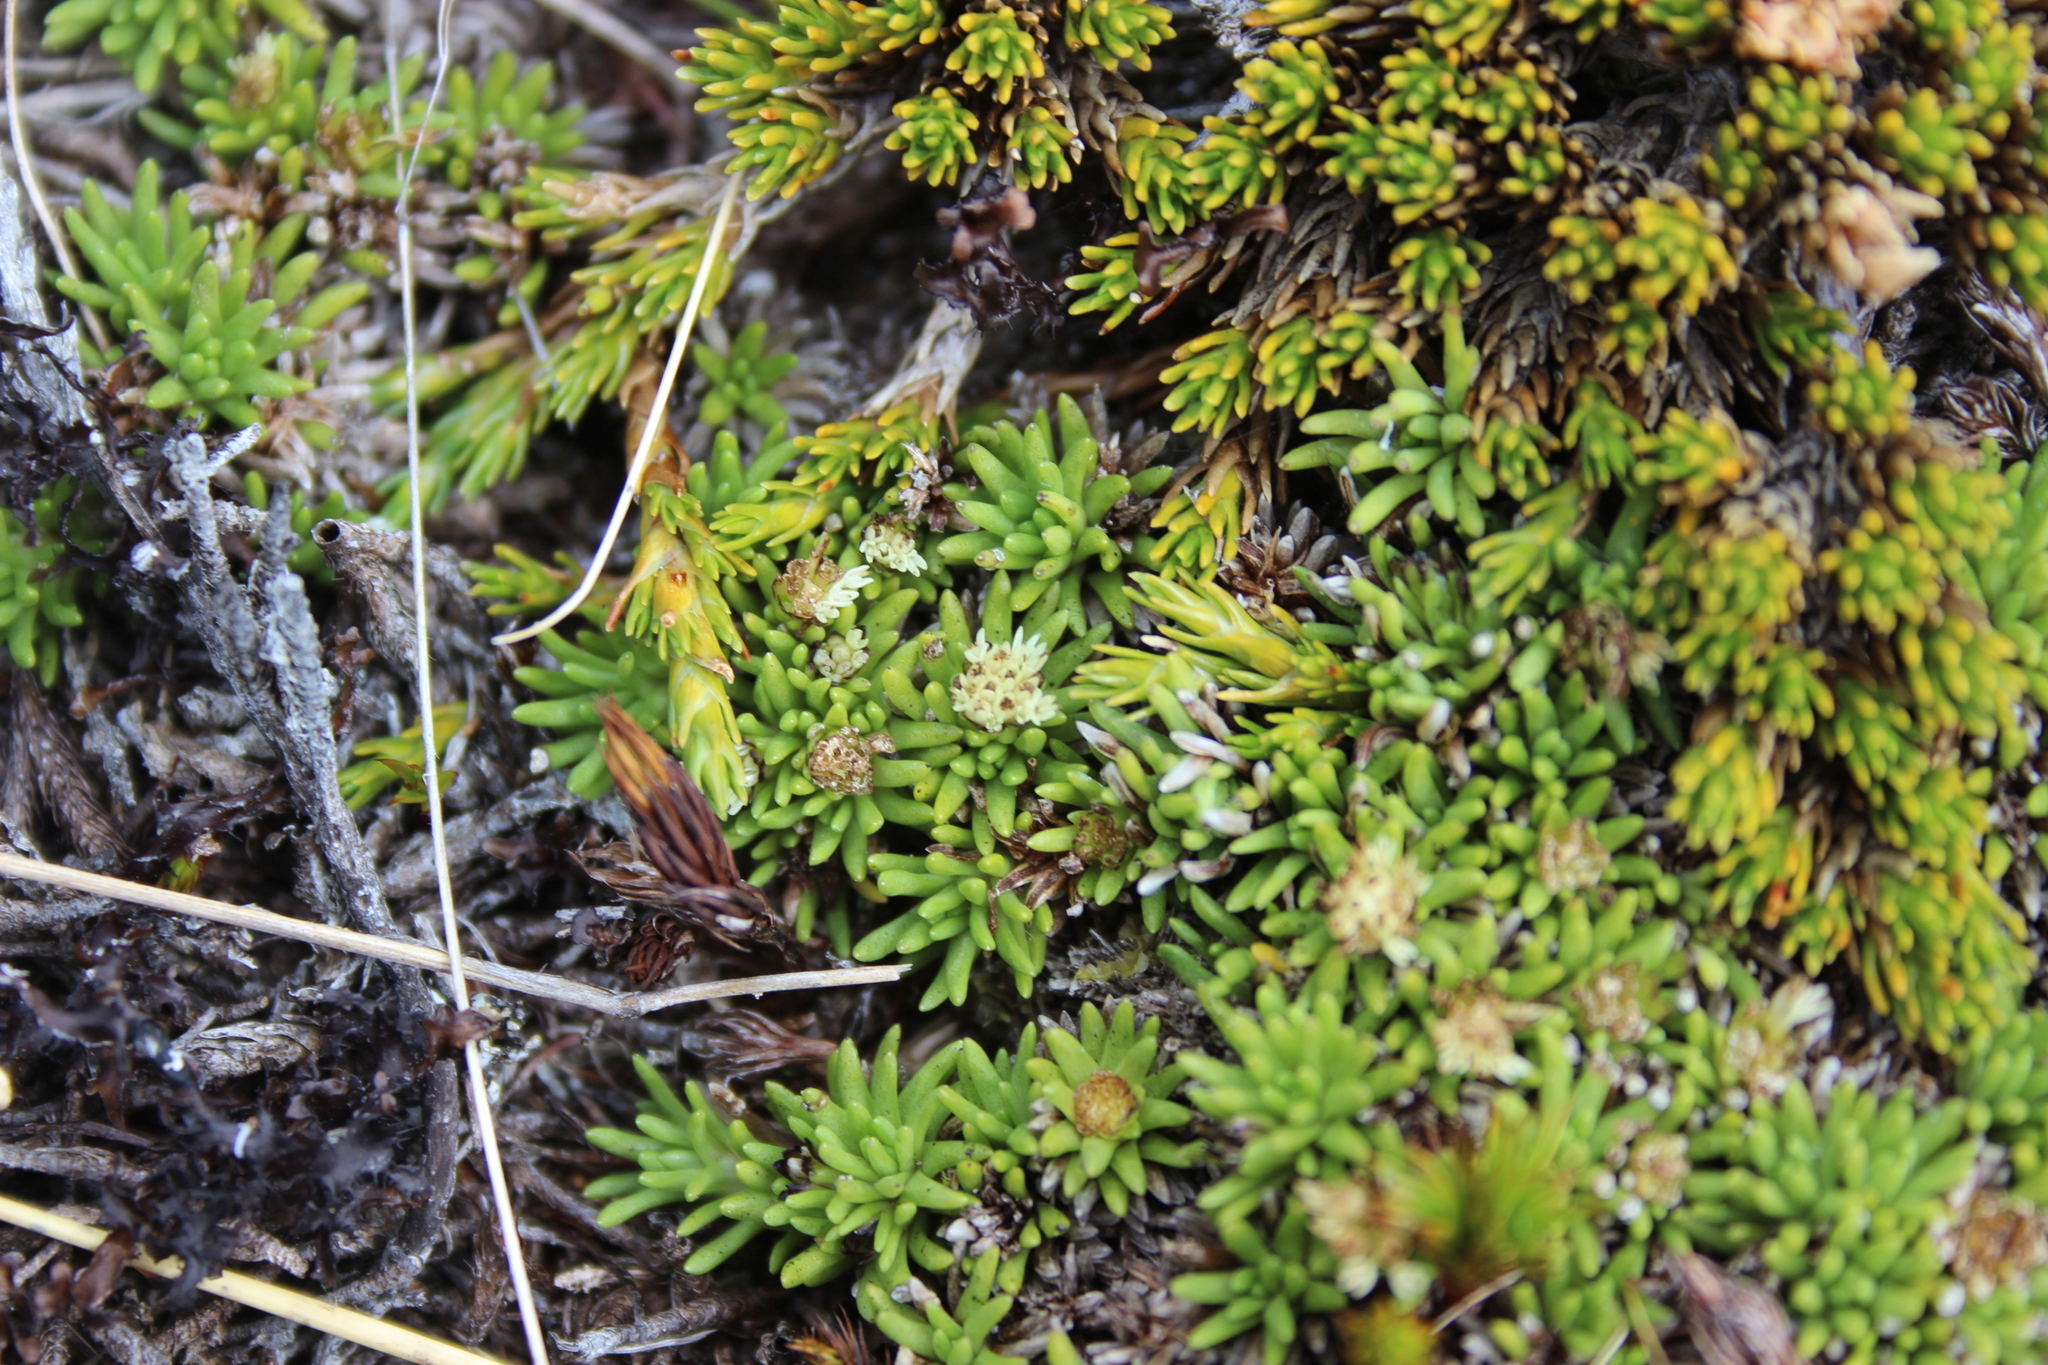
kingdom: Plantae
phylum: Tracheophyta
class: Magnoliopsida
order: Asterales
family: Asteraceae
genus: Abrotanella
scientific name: Abrotanella inconspicua
